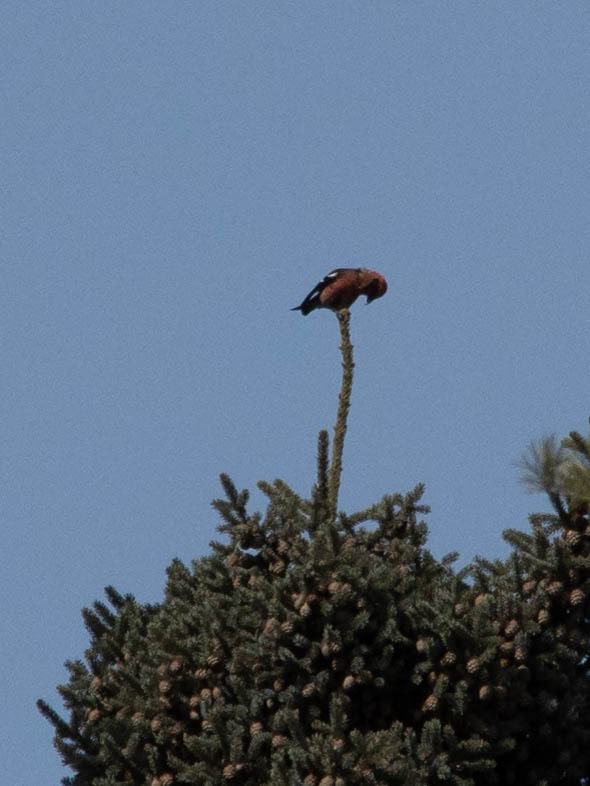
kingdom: Animalia
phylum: Chordata
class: Aves
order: Passeriformes
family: Fringillidae
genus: Loxia
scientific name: Loxia leucoptera
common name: Two-barred crossbill
